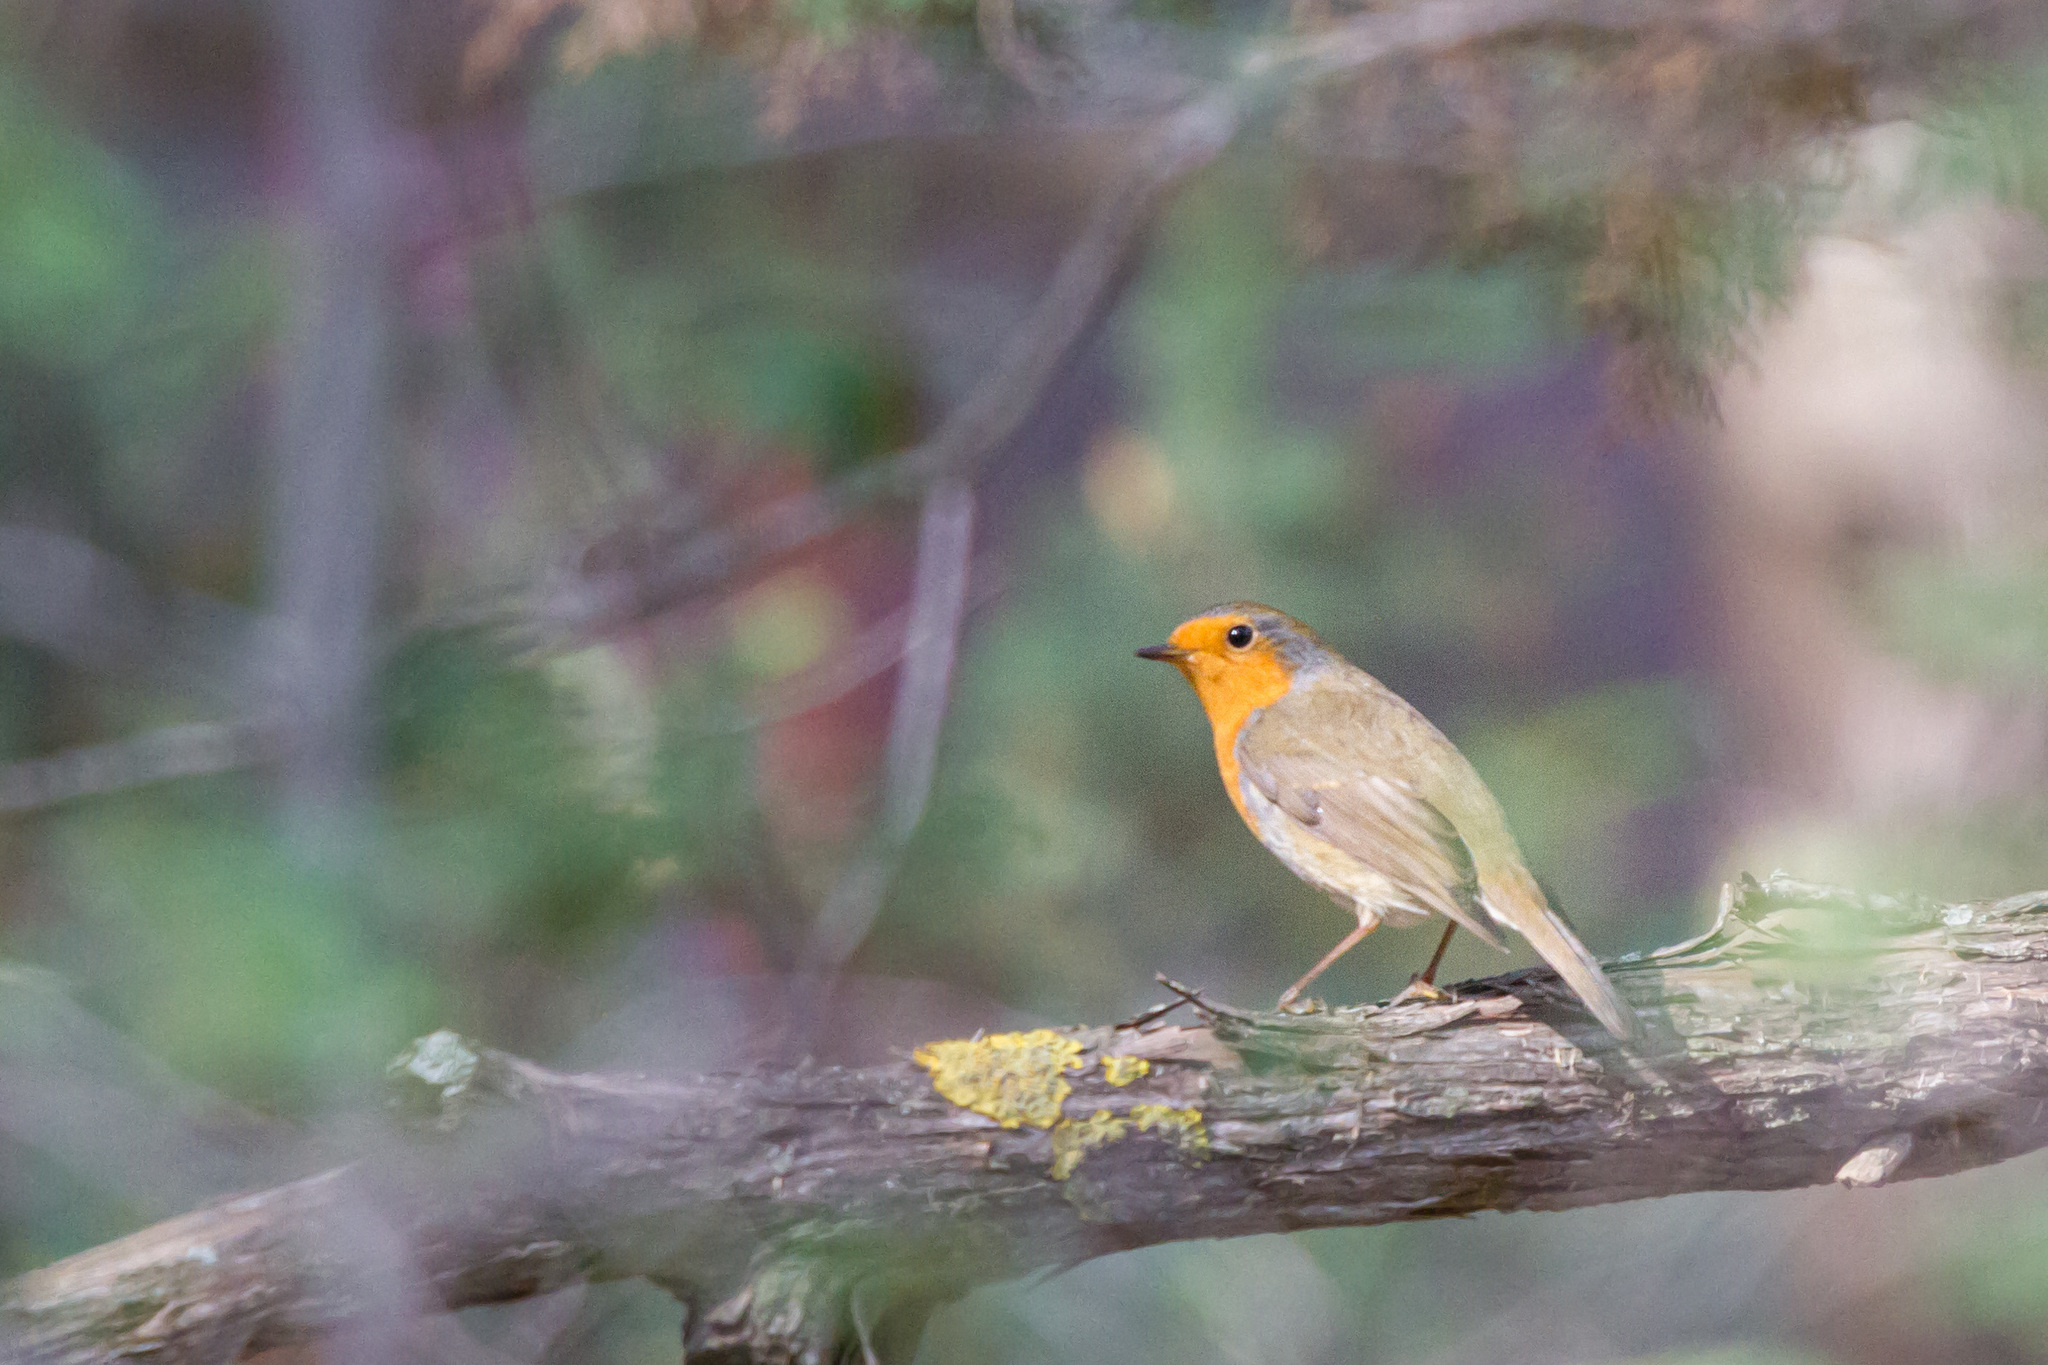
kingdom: Animalia
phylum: Chordata
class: Aves
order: Passeriformes
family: Muscicapidae
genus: Erithacus
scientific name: Erithacus rubecula
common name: European robin
